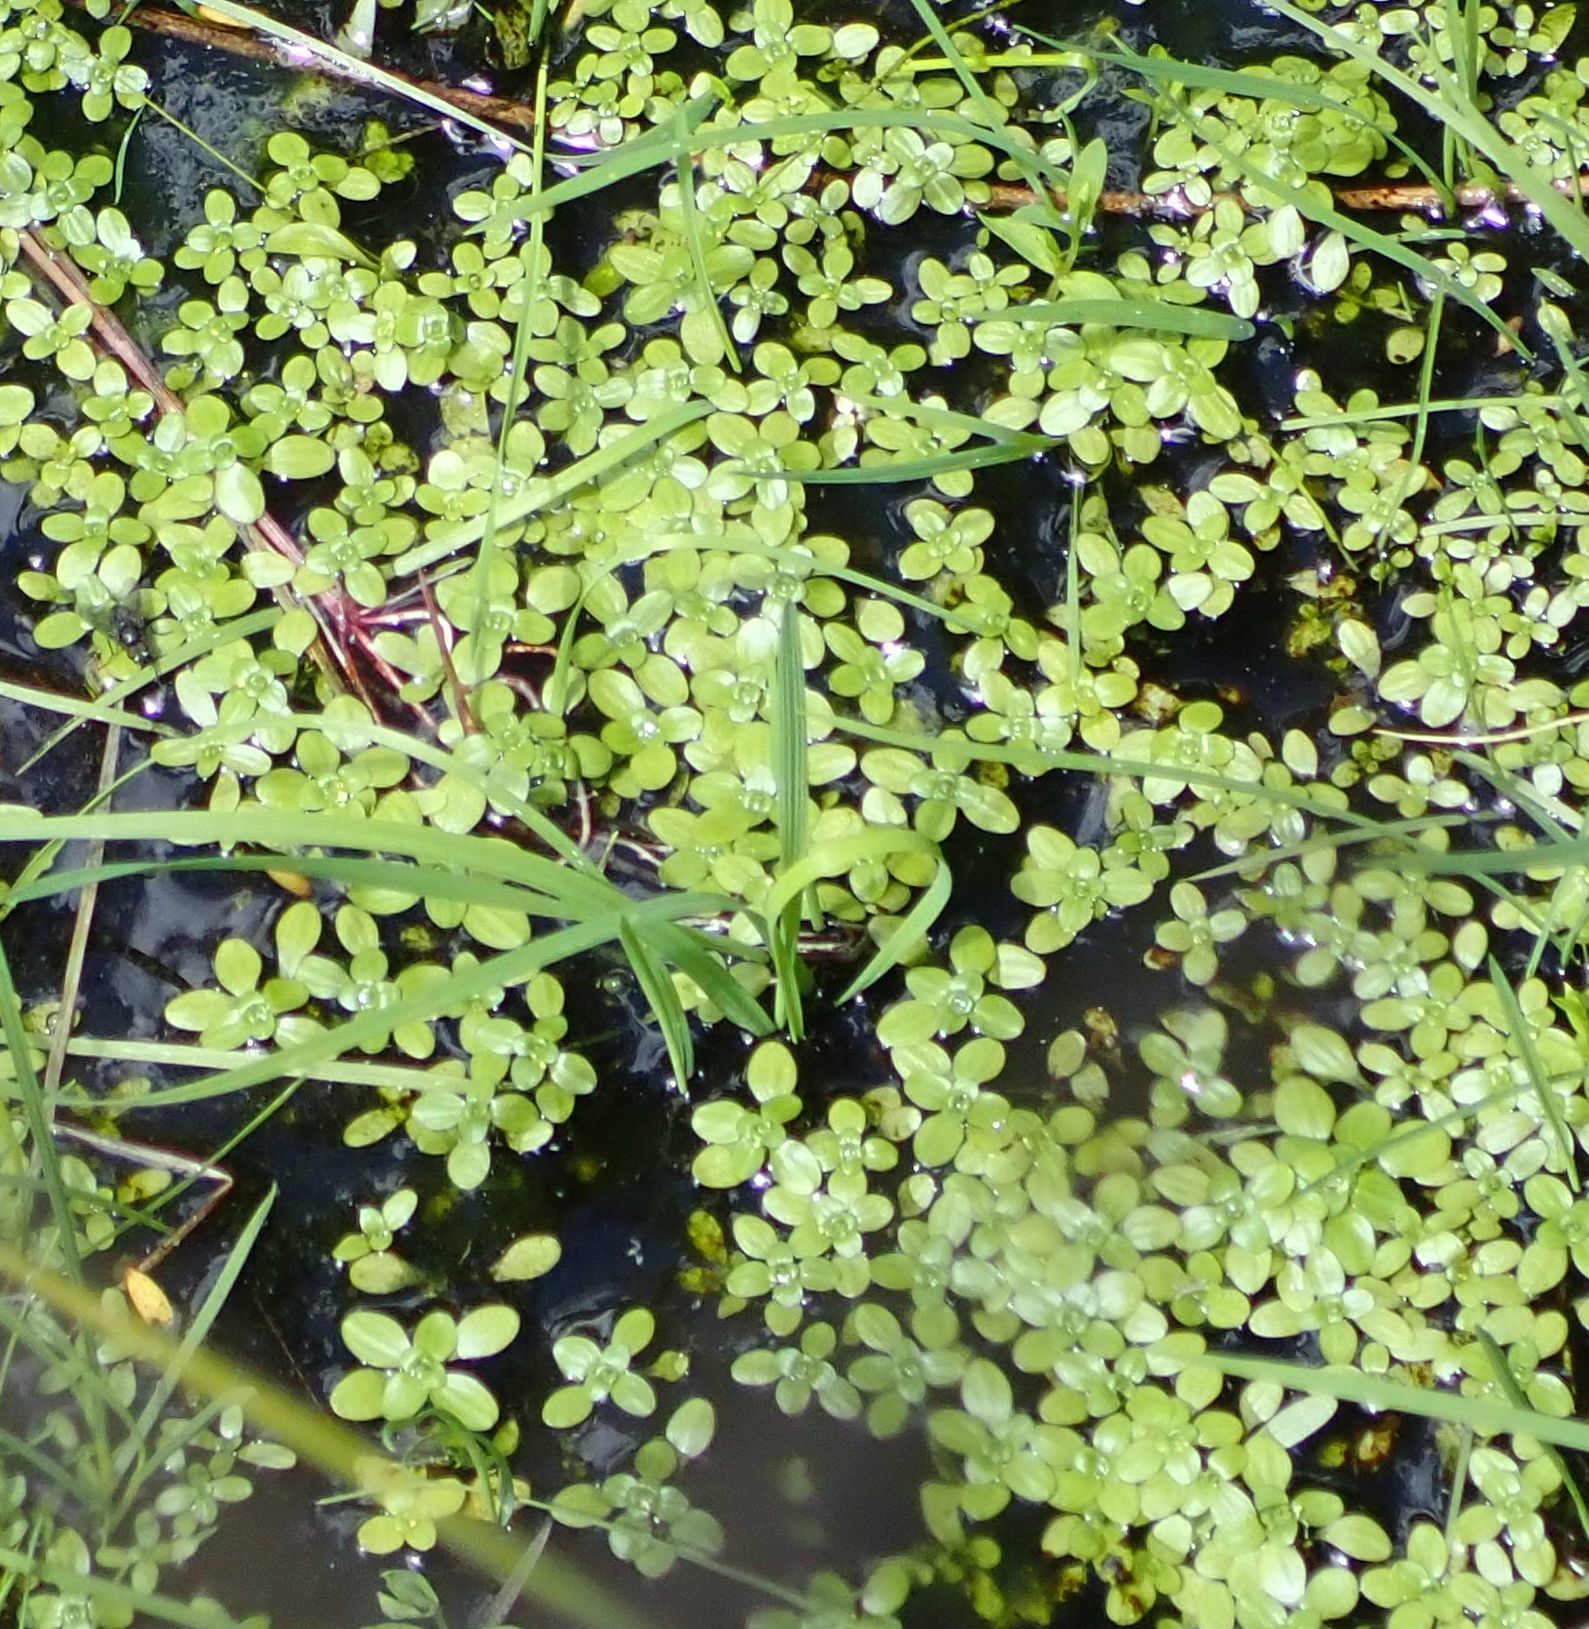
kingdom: Plantae
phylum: Tracheophyta
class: Magnoliopsida
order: Lamiales
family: Plantaginaceae
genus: Callitriche
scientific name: Callitriche stagnalis
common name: Common water-starwort
